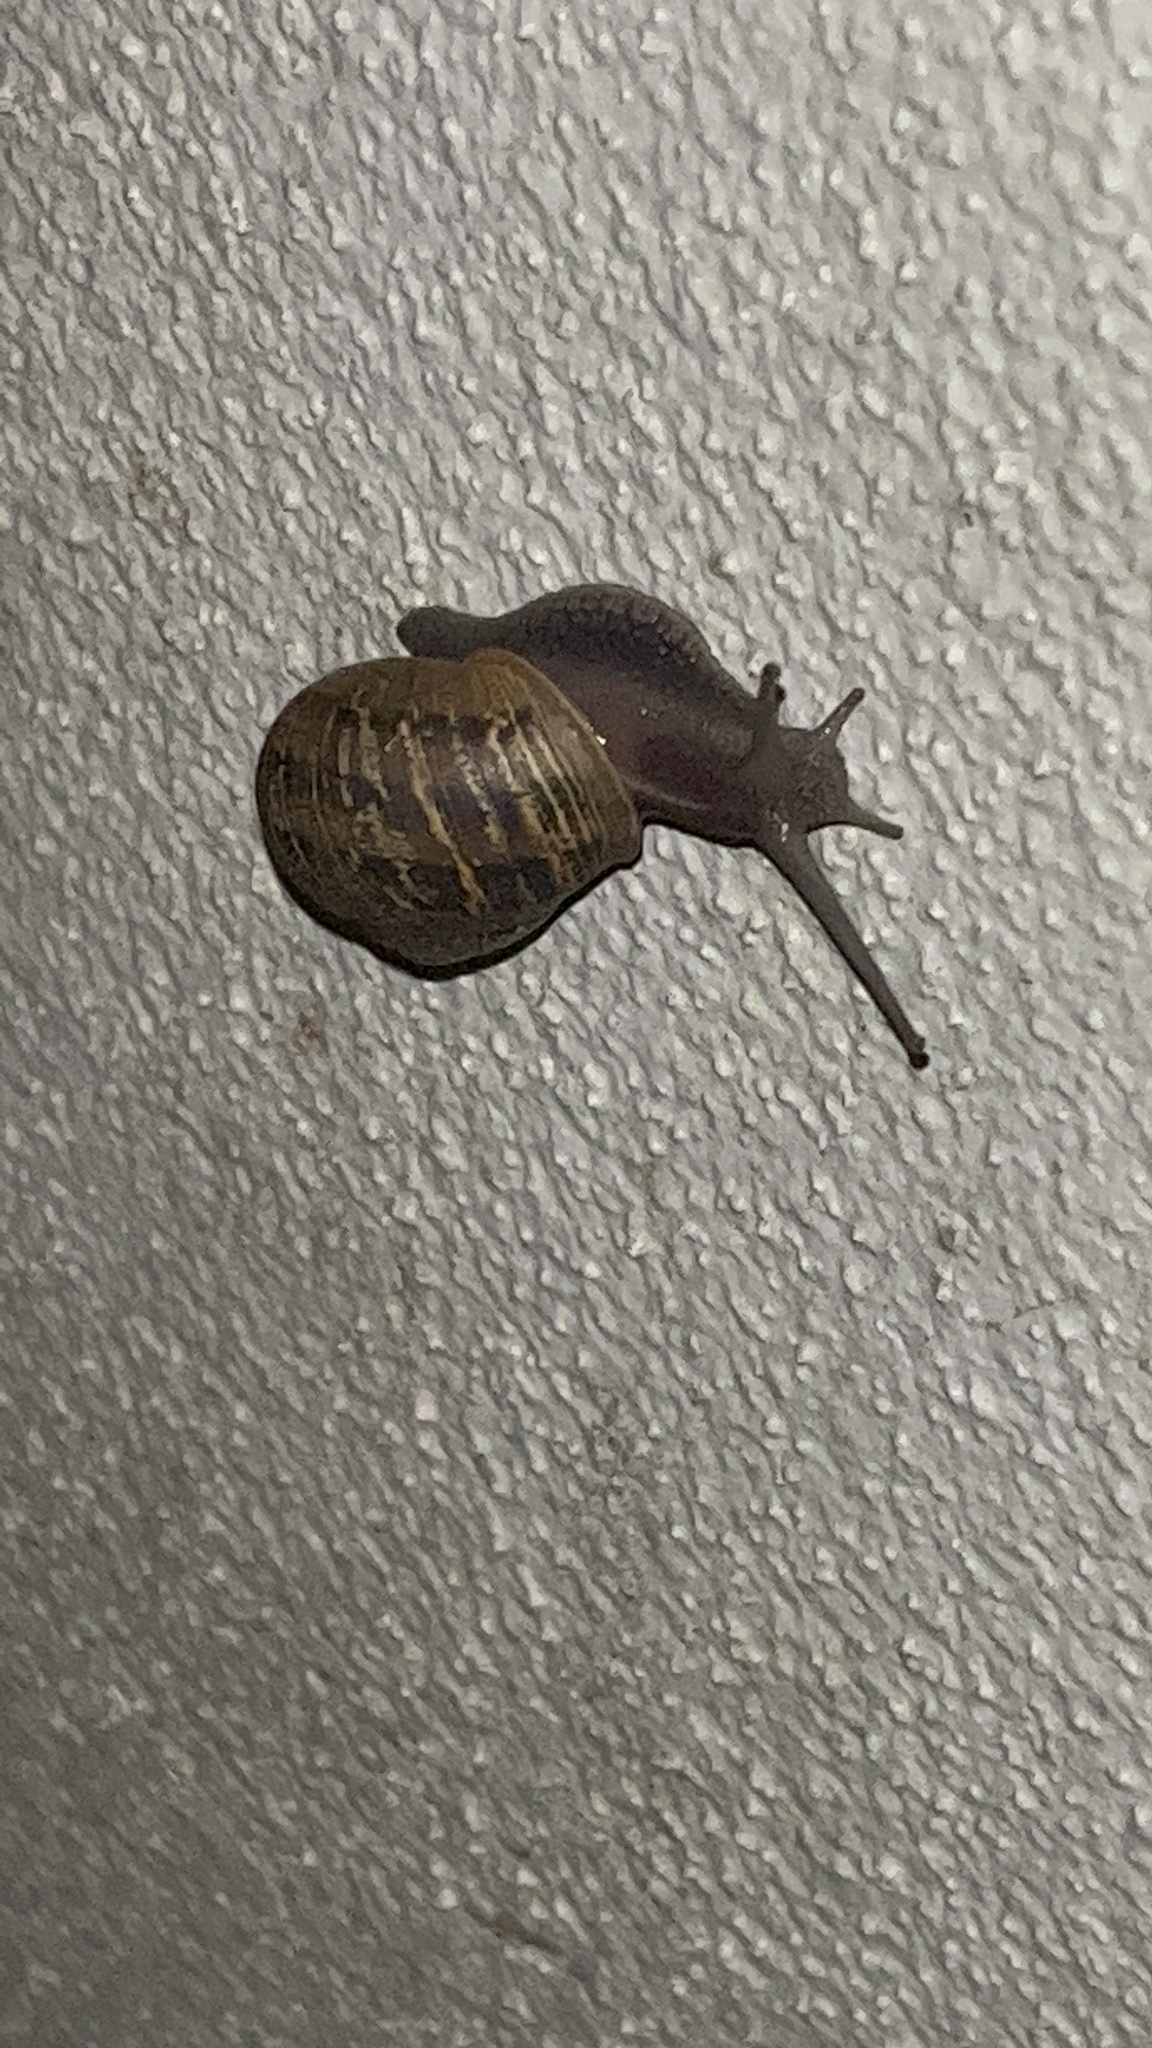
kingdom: Animalia
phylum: Mollusca
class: Gastropoda
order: Stylommatophora
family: Helicidae
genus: Cornu
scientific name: Cornu aspersum
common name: Brown garden snail
